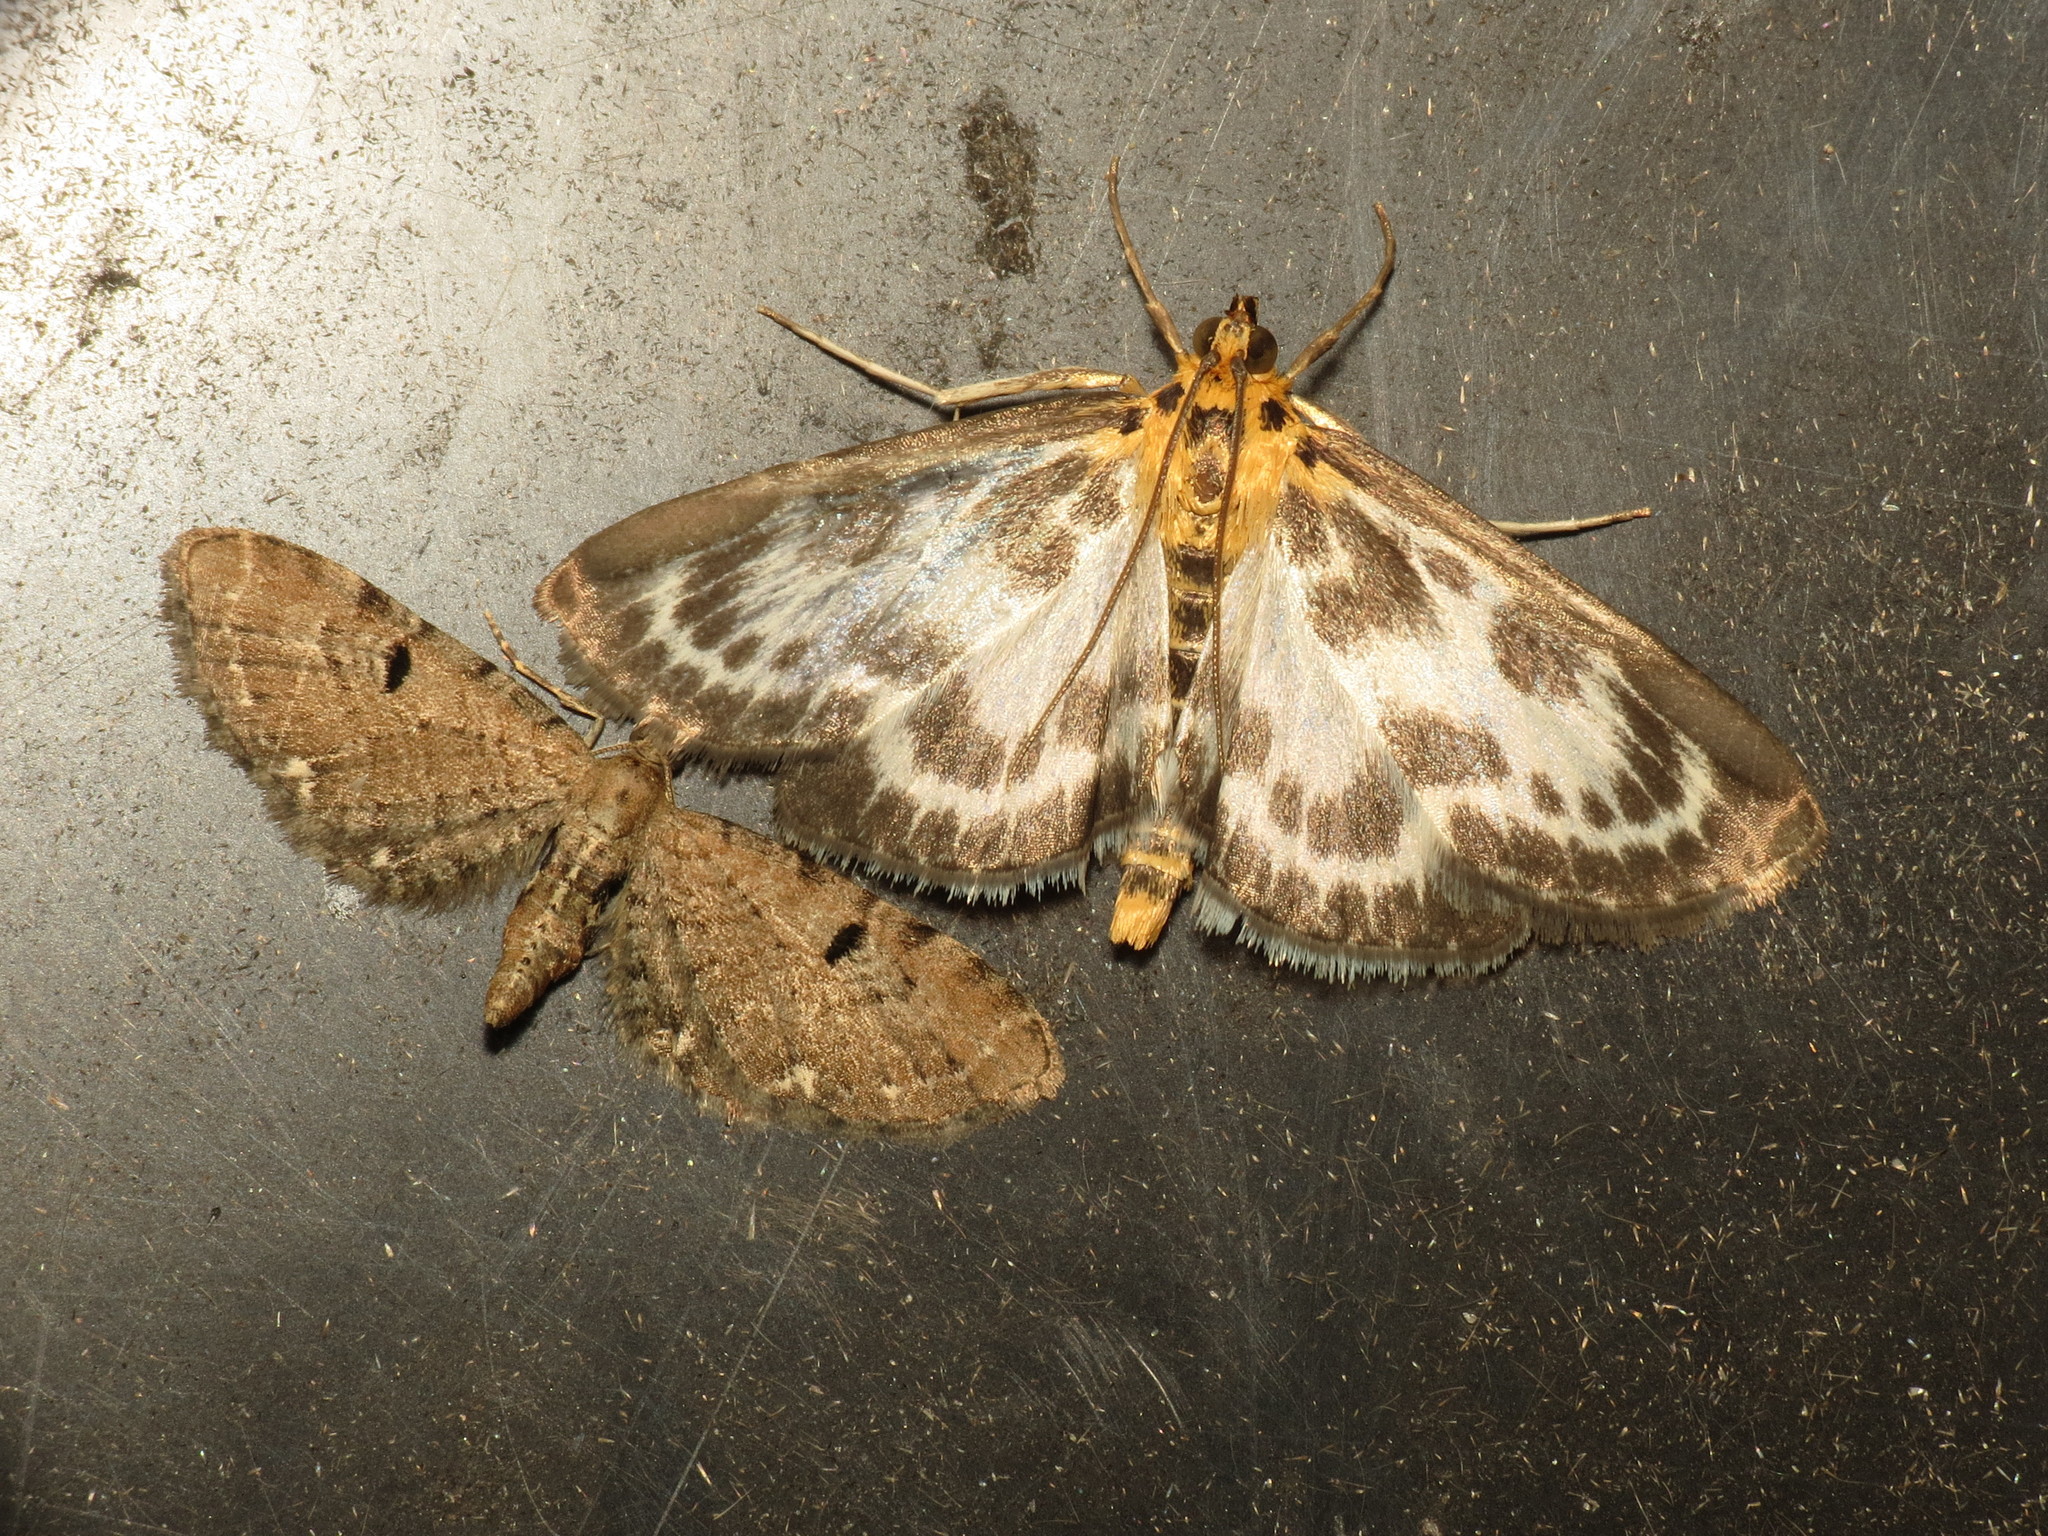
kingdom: Animalia
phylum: Arthropoda
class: Insecta
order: Lepidoptera
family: Geometridae
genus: Eupithecia
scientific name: Eupithecia assimilata
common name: Currant pug
